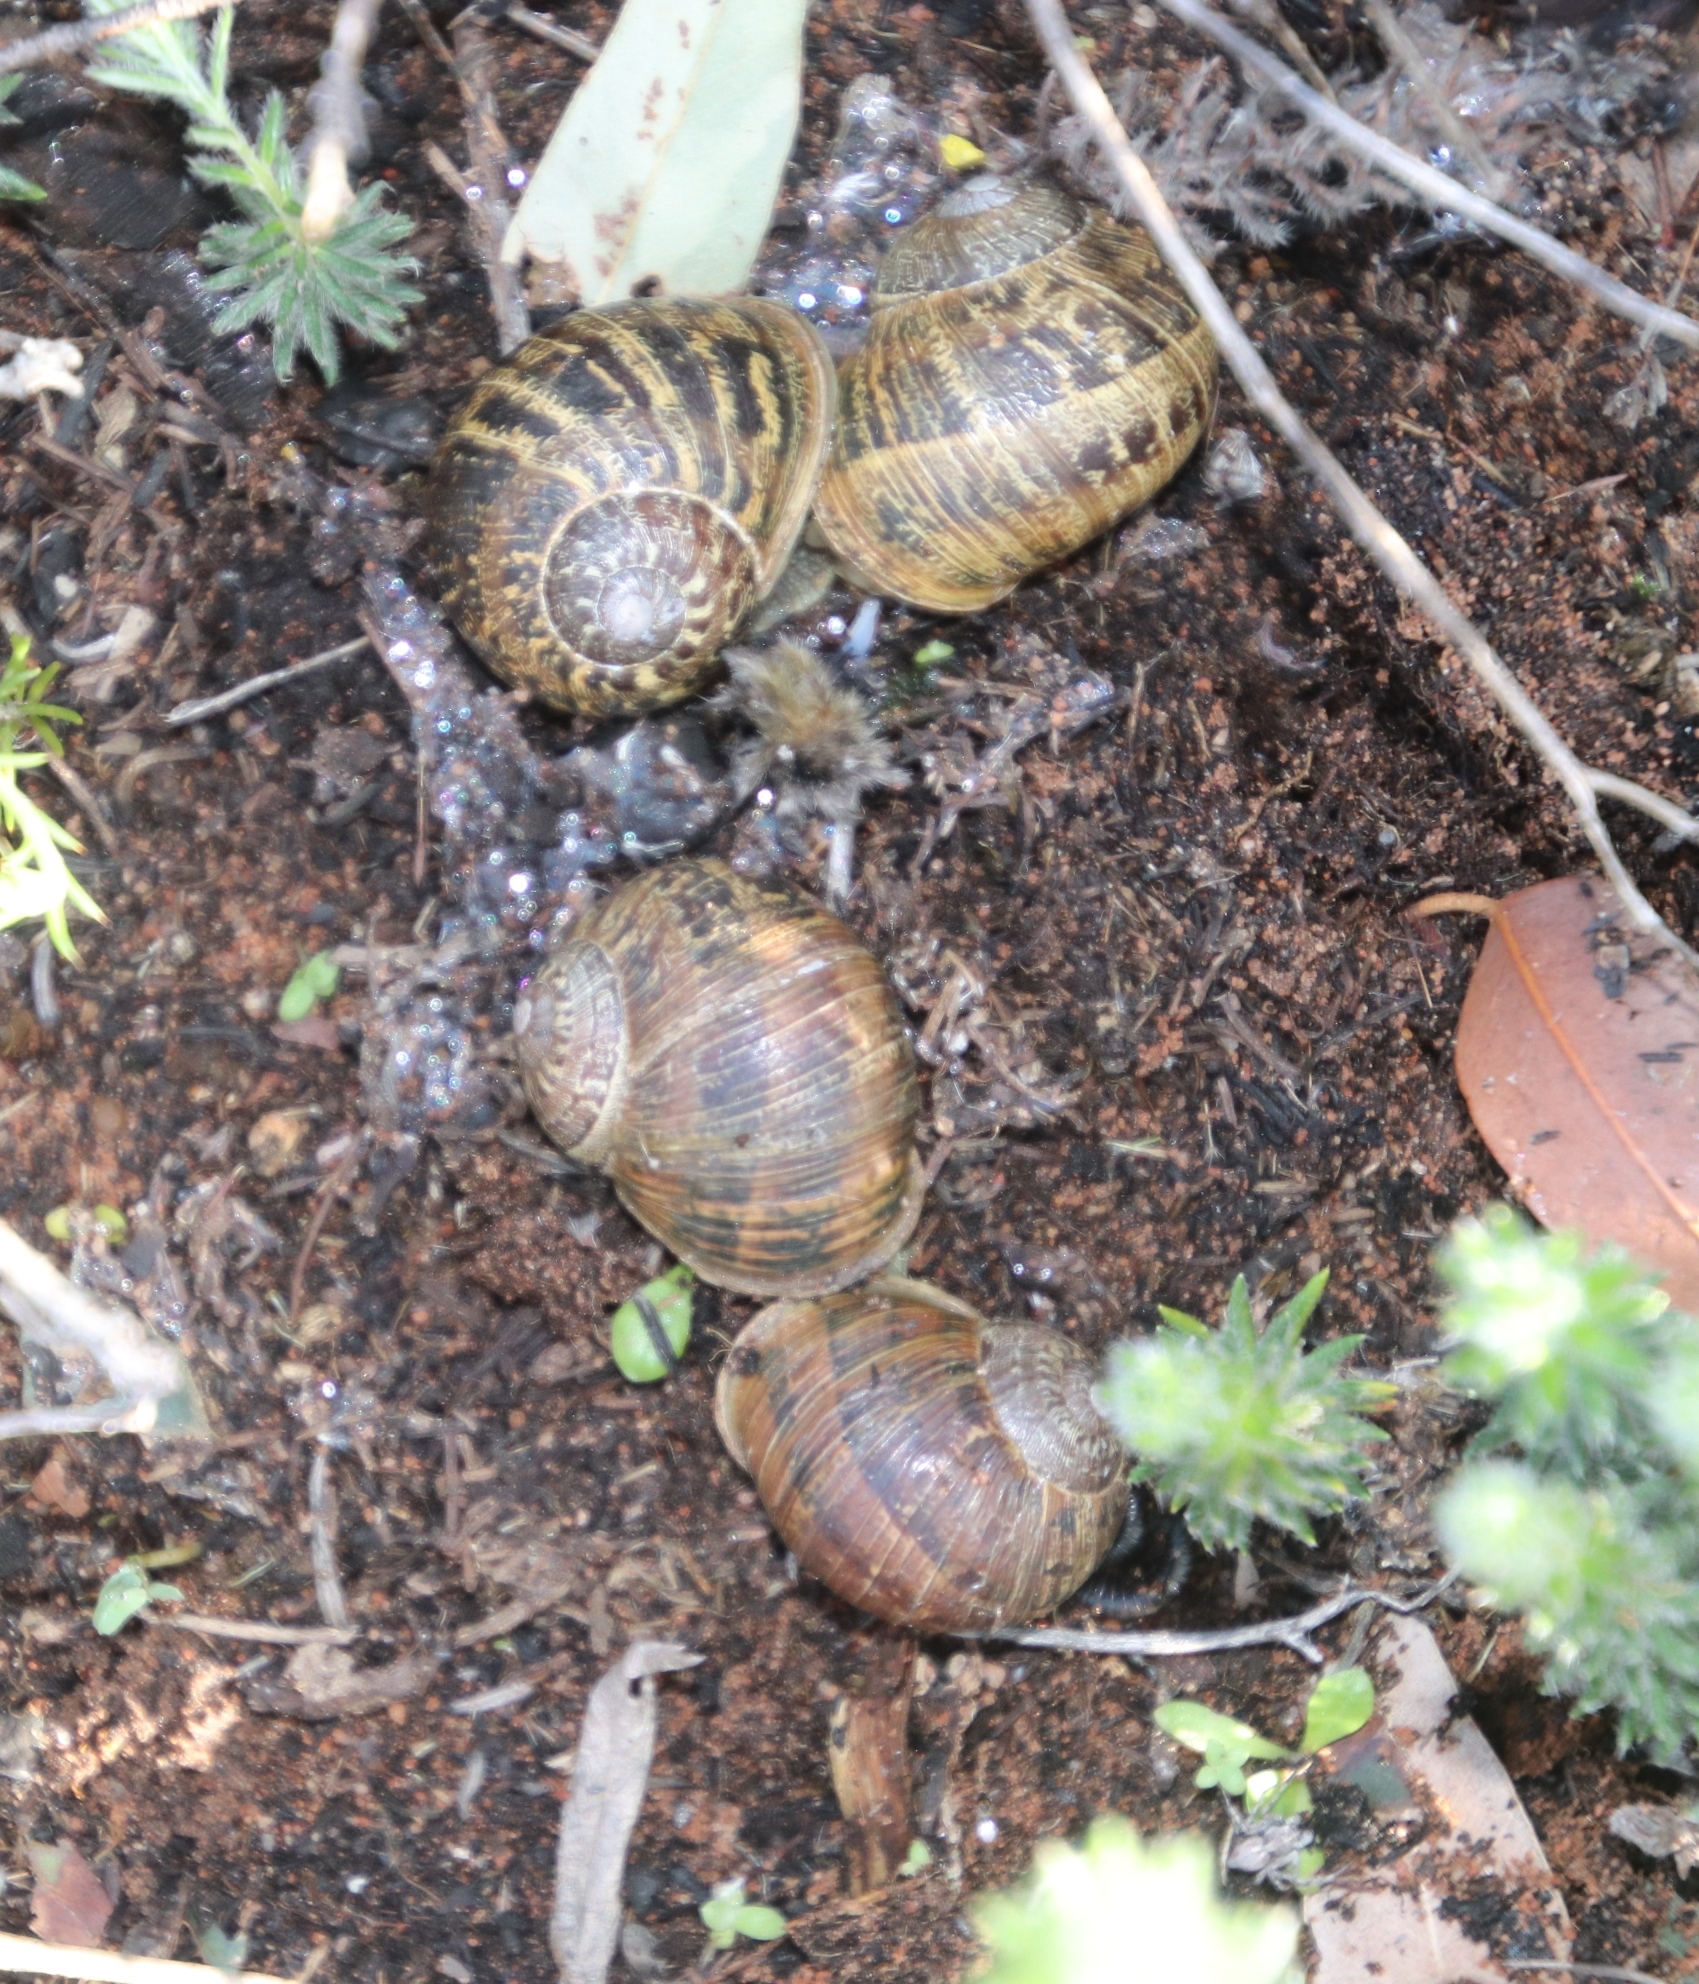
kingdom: Animalia
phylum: Mollusca
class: Gastropoda
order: Stylommatophora
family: Helicidae
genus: Cornu
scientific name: Cornu aspersum
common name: Brown garden snail
